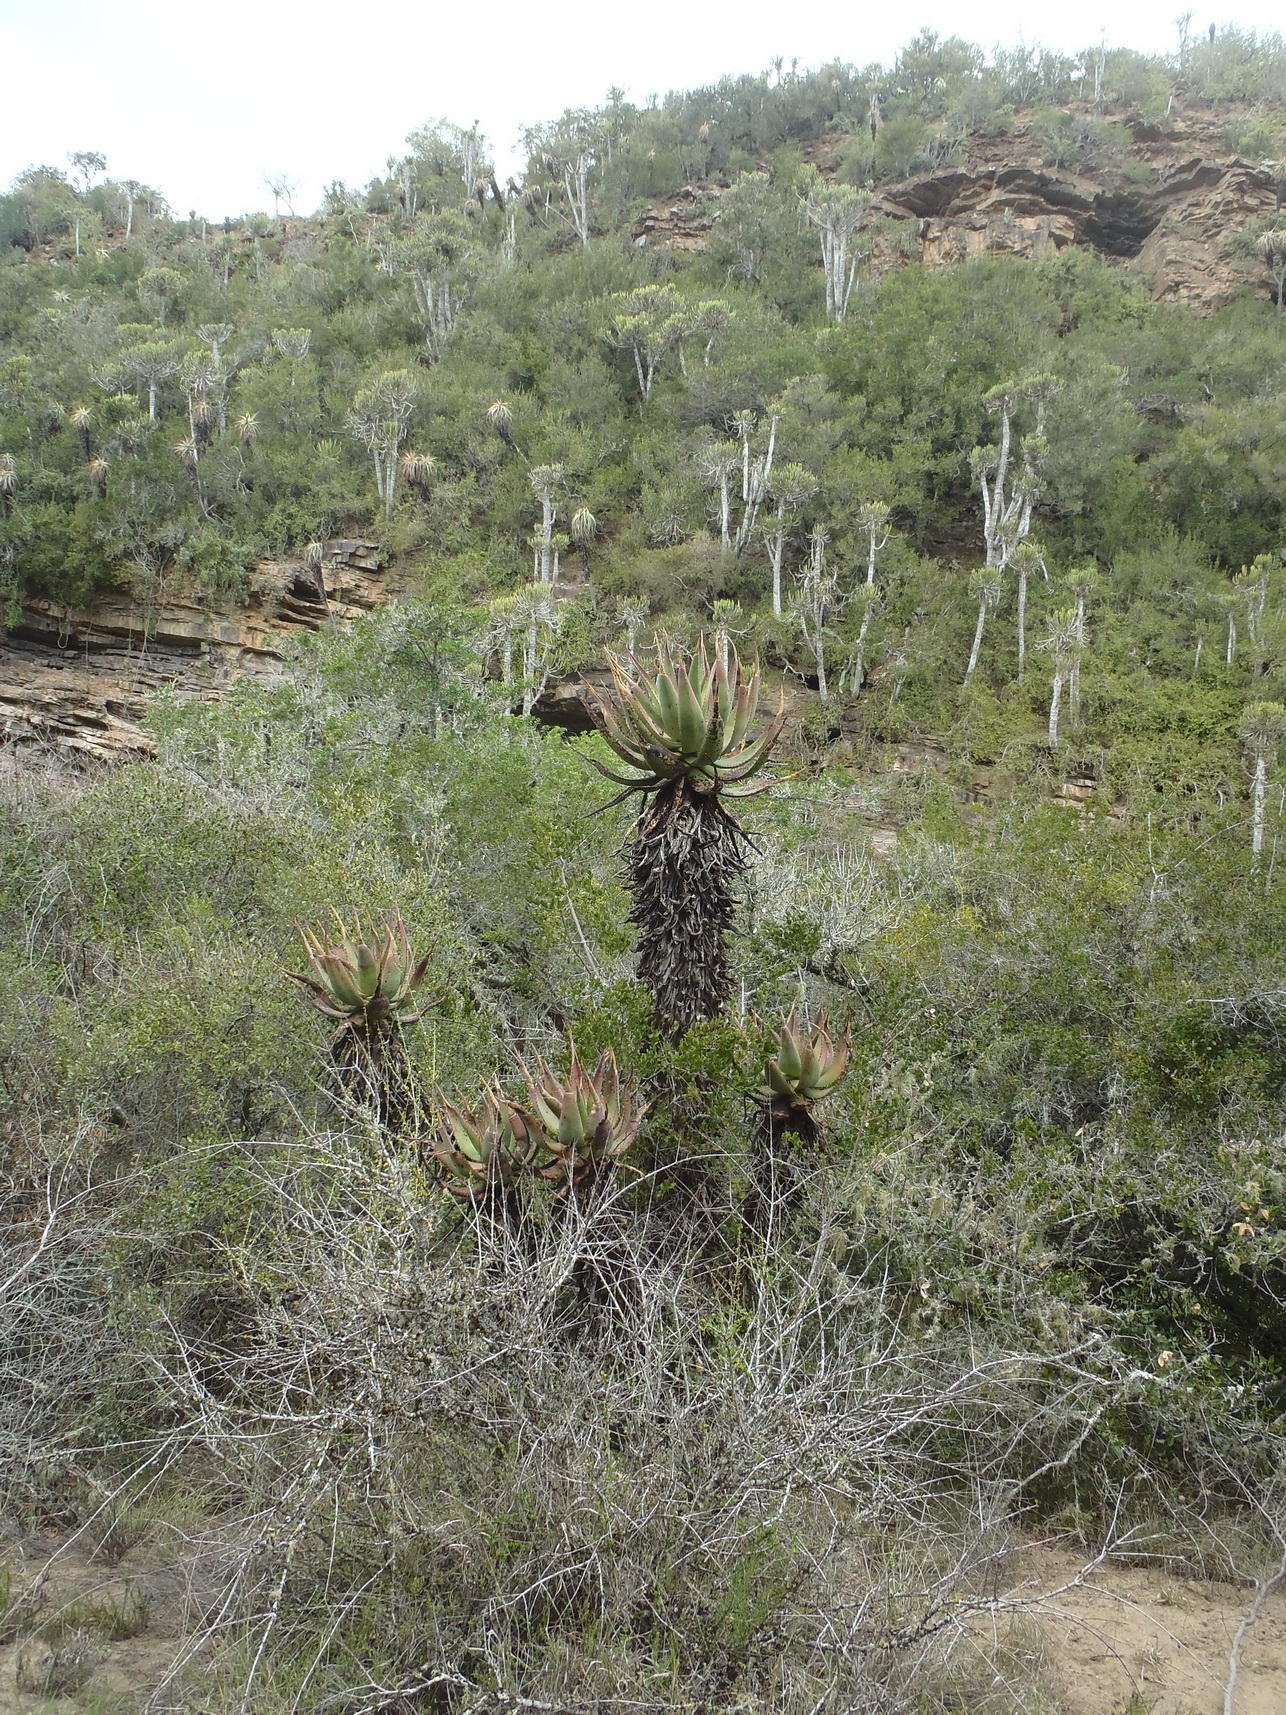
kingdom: Plantae
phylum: Tracheophyta
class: Liliopsida
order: Asparagales
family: Asphodelaceae
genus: Aloe
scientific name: Aloe ferox
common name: Bitter aloe
